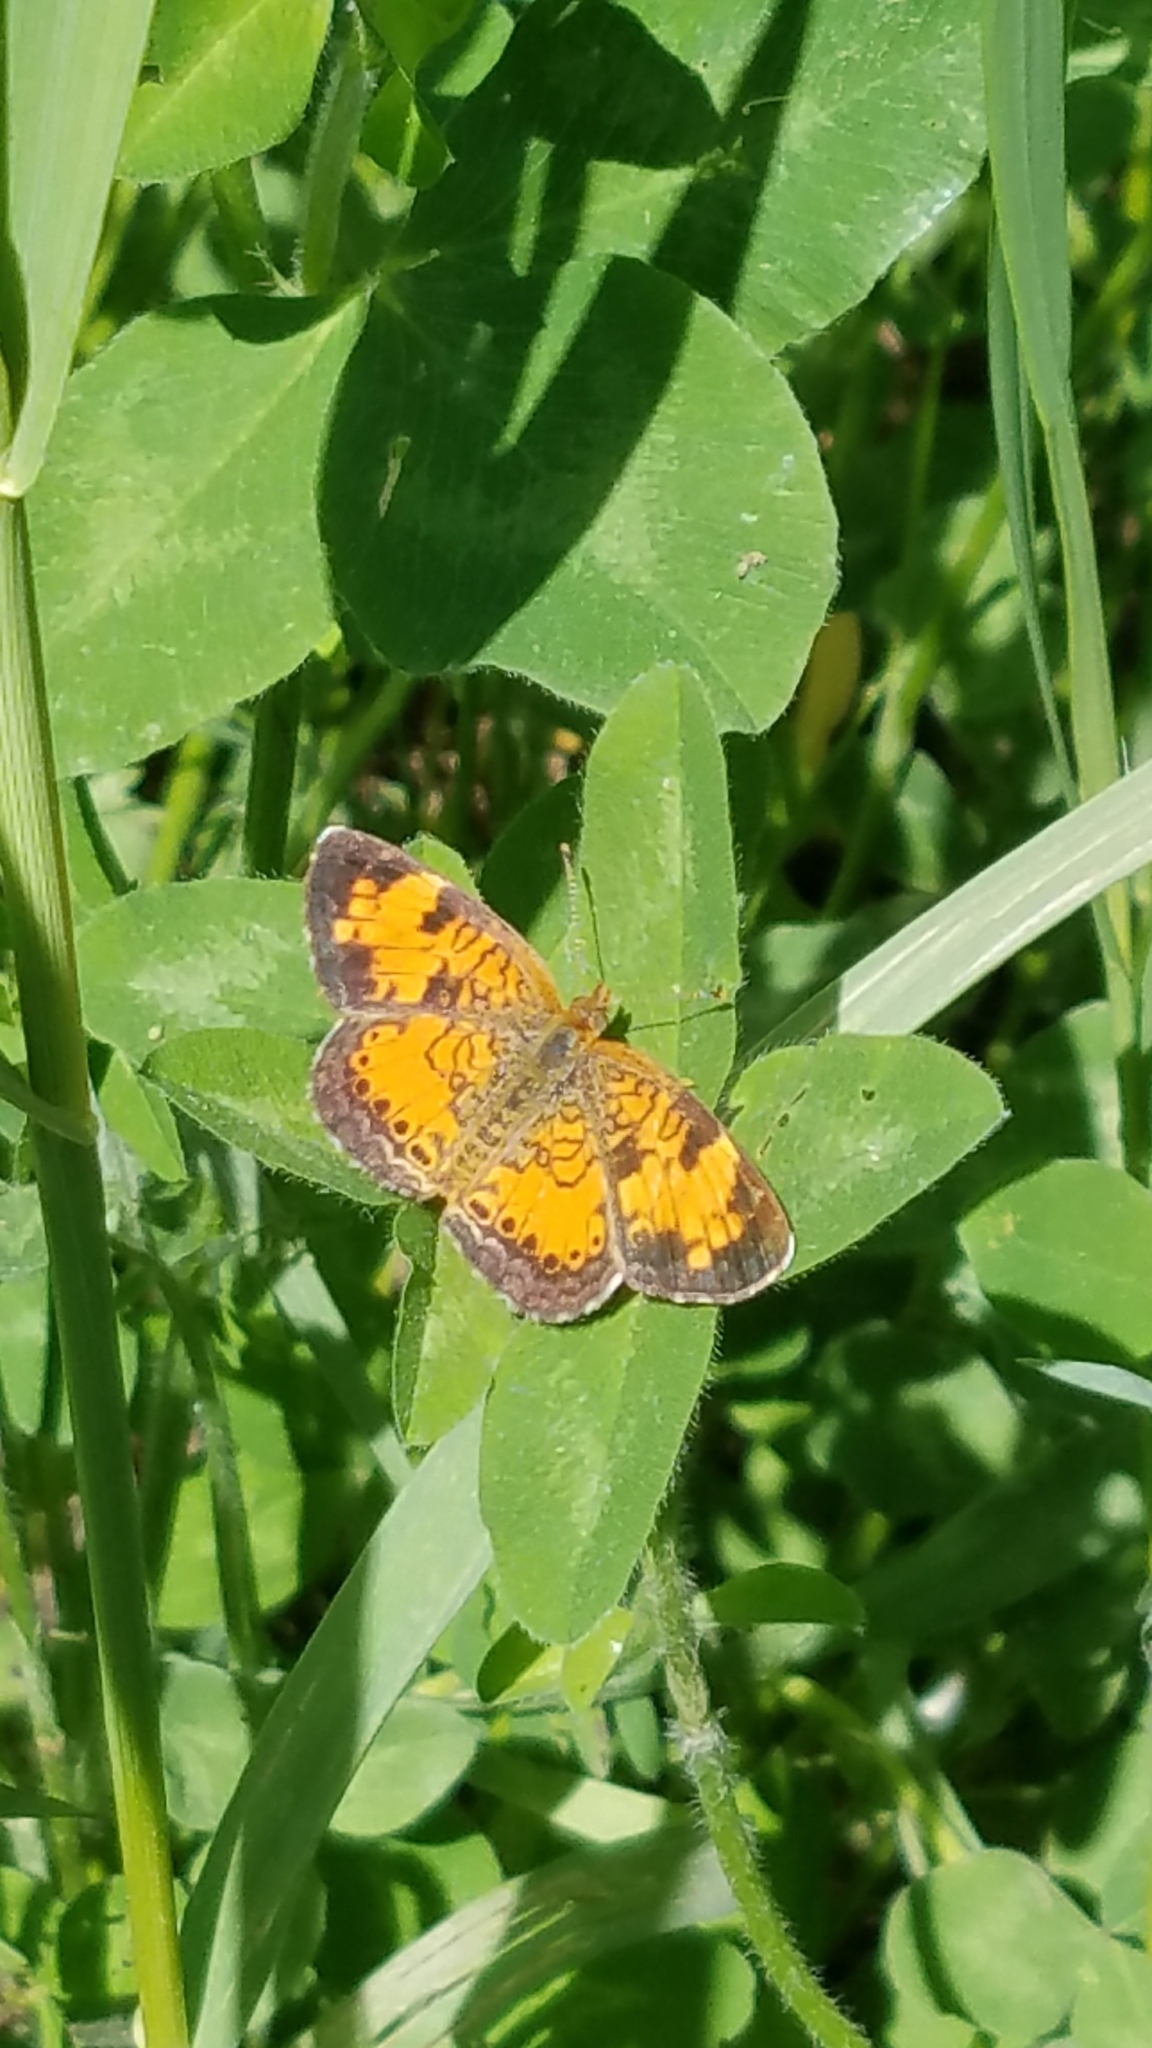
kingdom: Animalia
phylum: Arthropoda
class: Insecta
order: Lepidoptera
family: Nymphalidae
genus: Phyciodes
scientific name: Phyciodes tharos
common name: Pearl crescent
